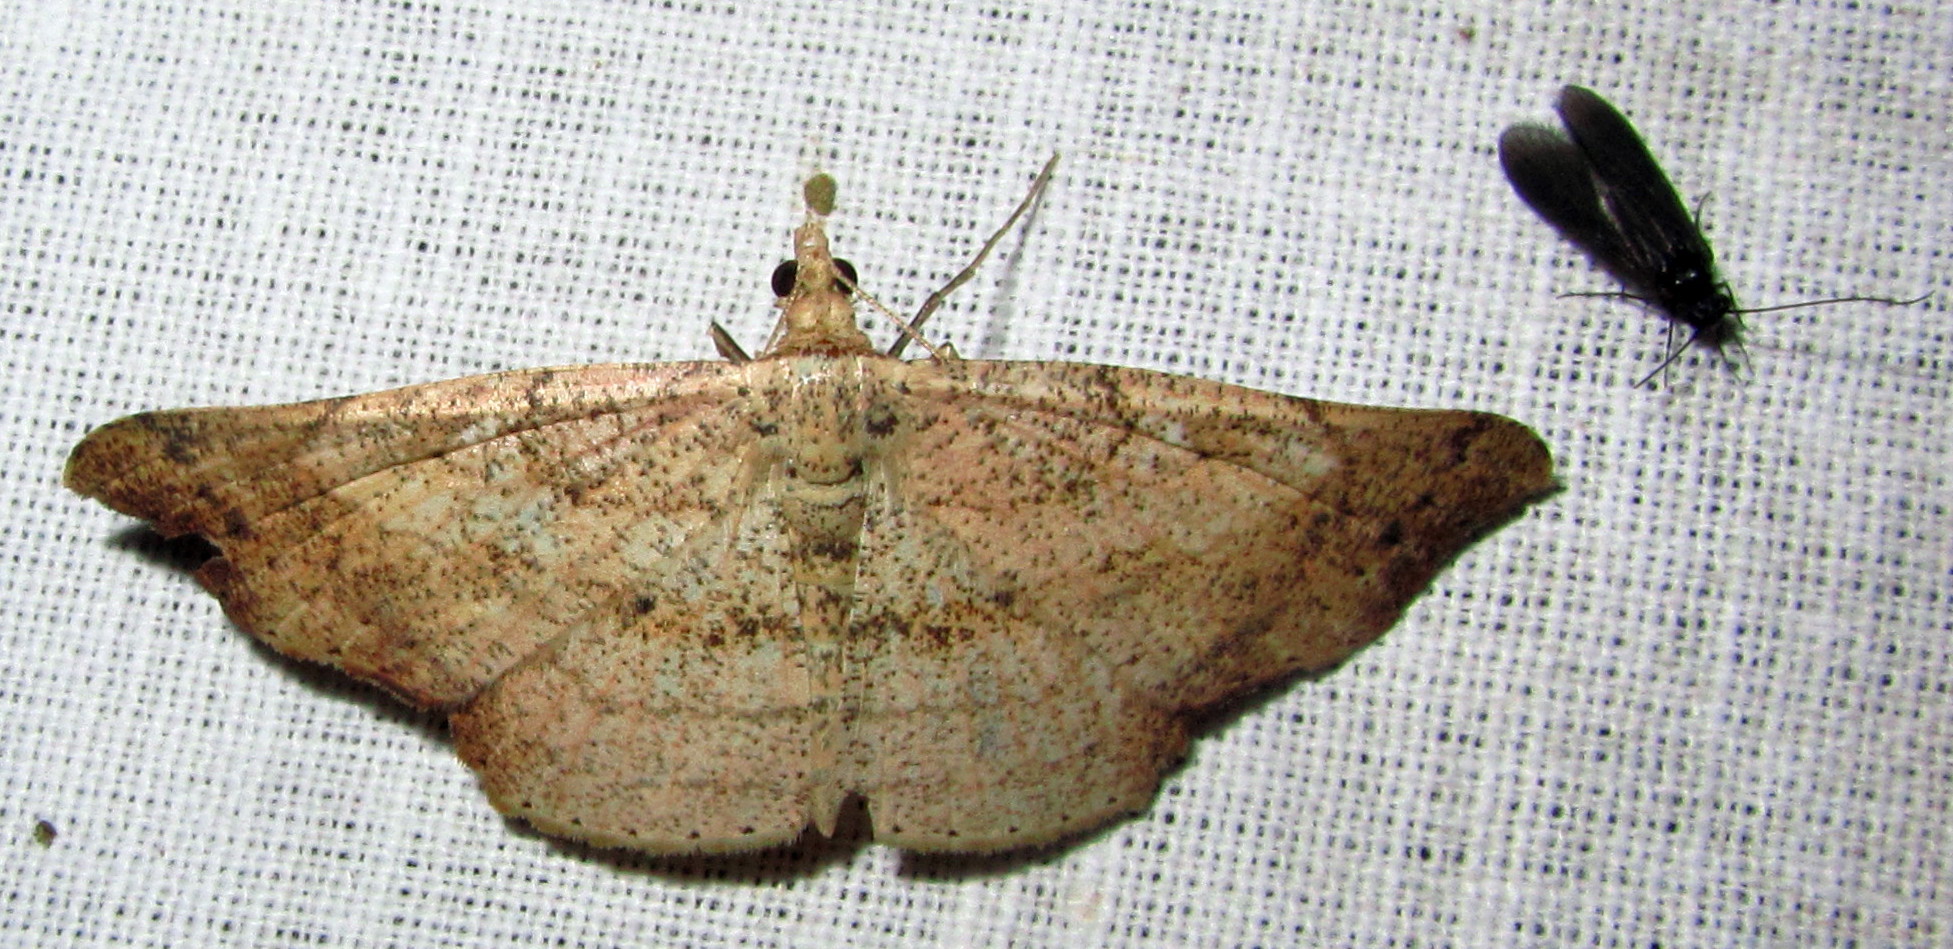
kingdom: Animalia
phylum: Arthropoda
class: Insecta
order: Lepidoptera
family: Geometridae
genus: Ozola
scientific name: Ozola minor
